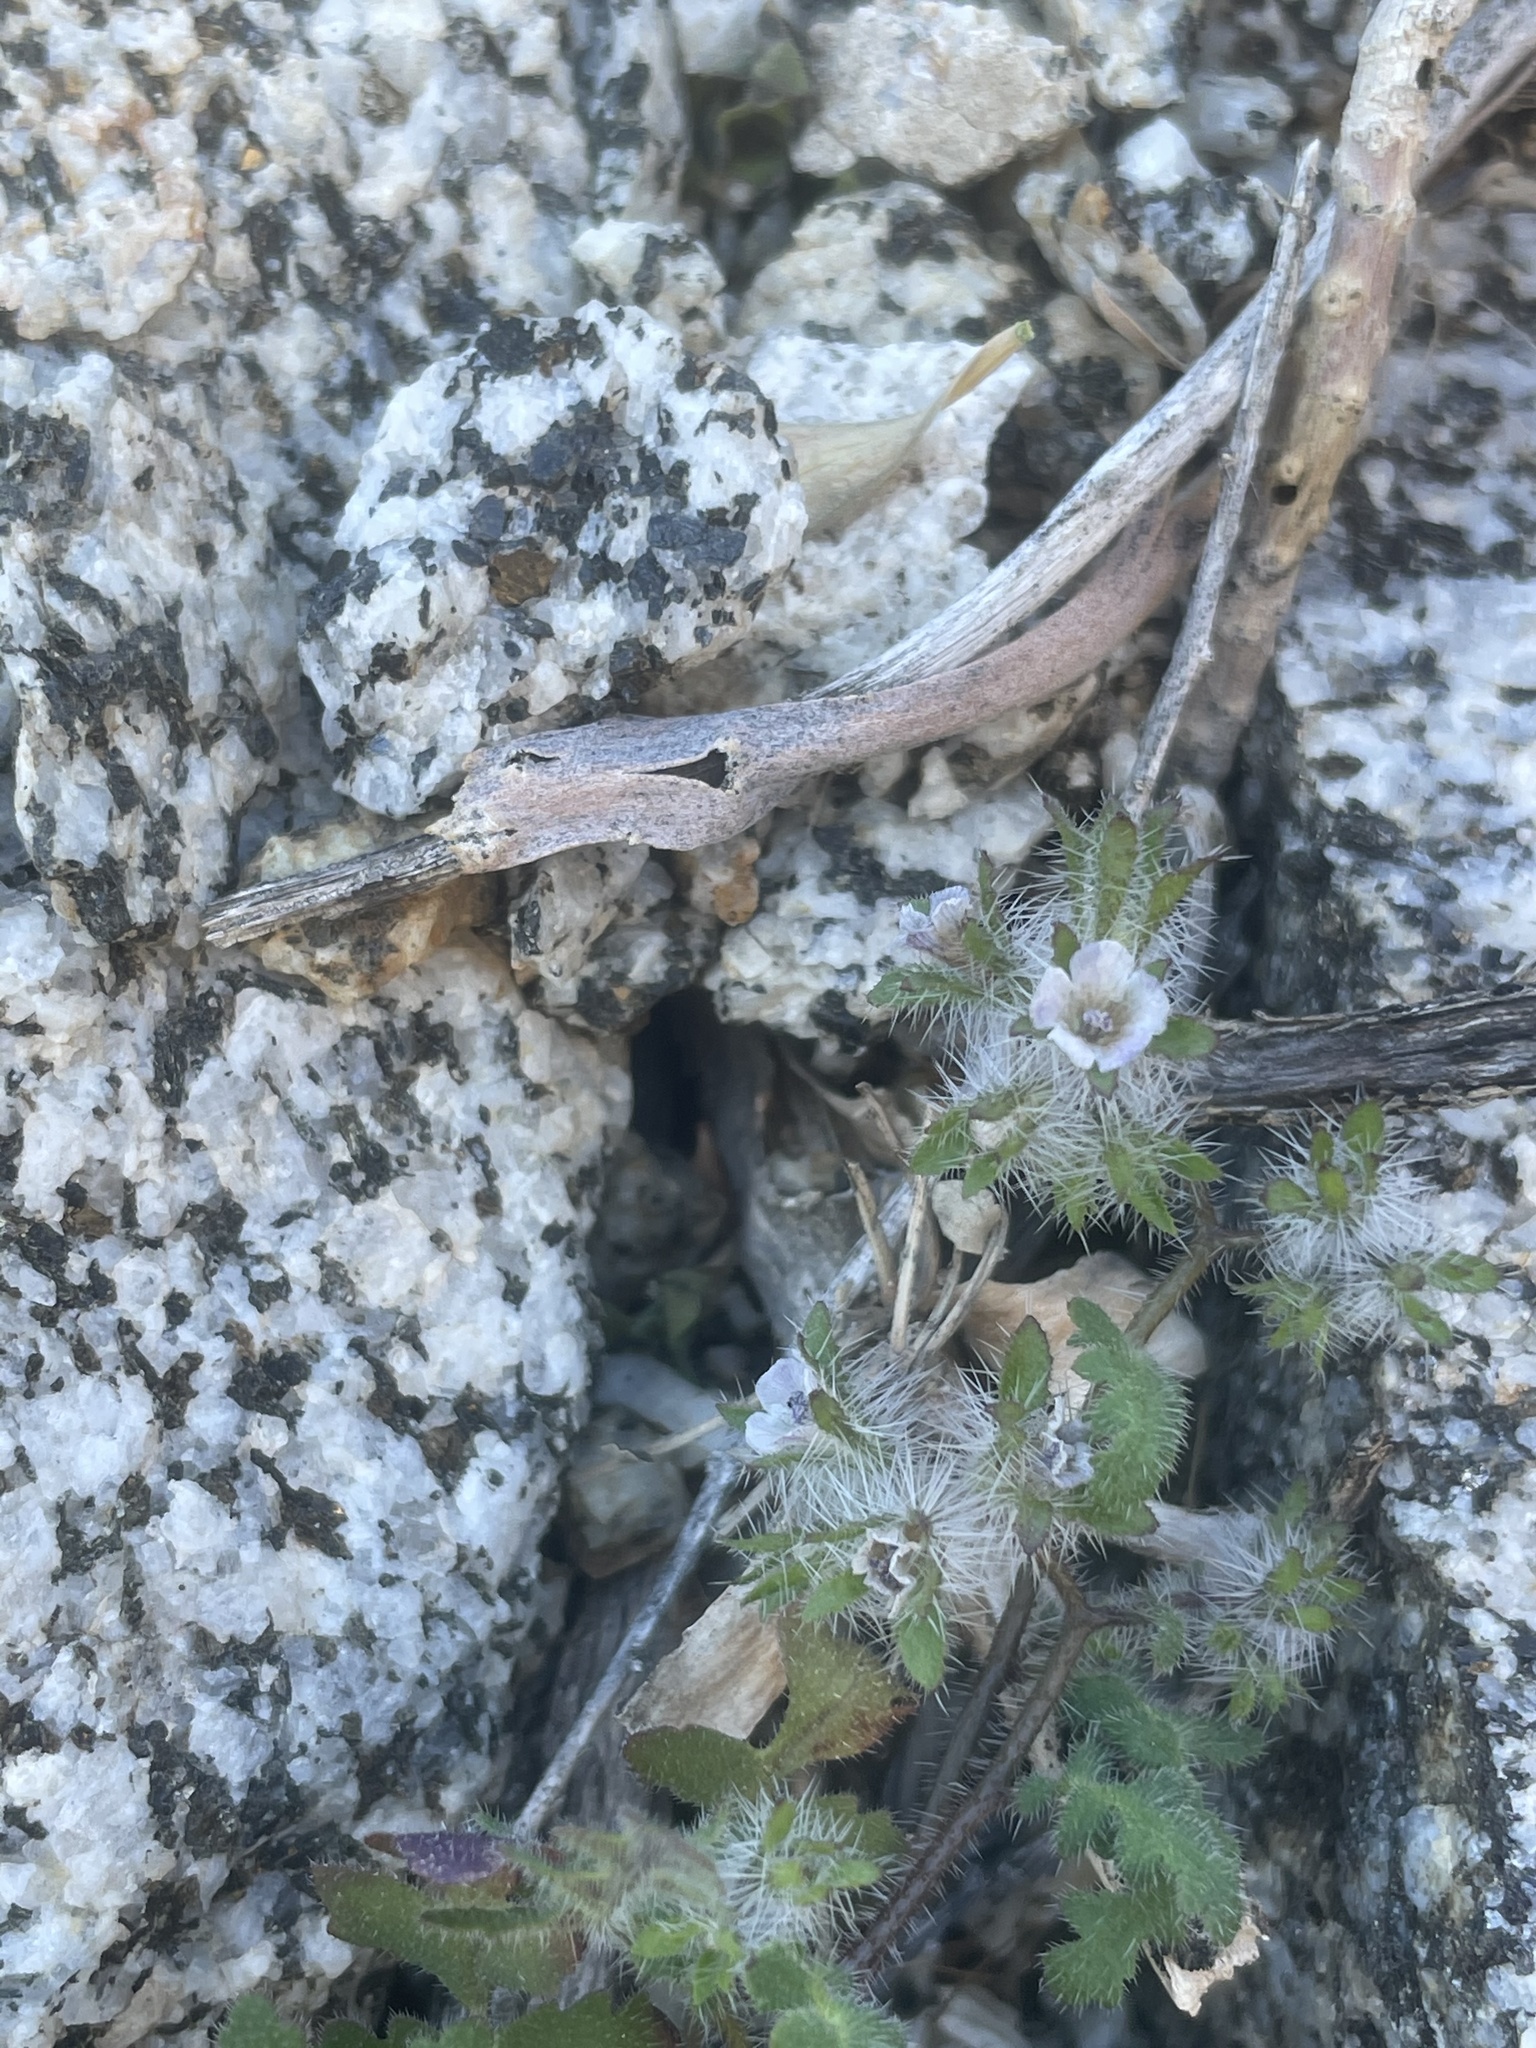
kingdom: Plantae
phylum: Tracheophyta
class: Magnoliopsida
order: Boraginales
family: Hydrophyllaceae
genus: Phacelia
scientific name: Phacelia pauciflora
